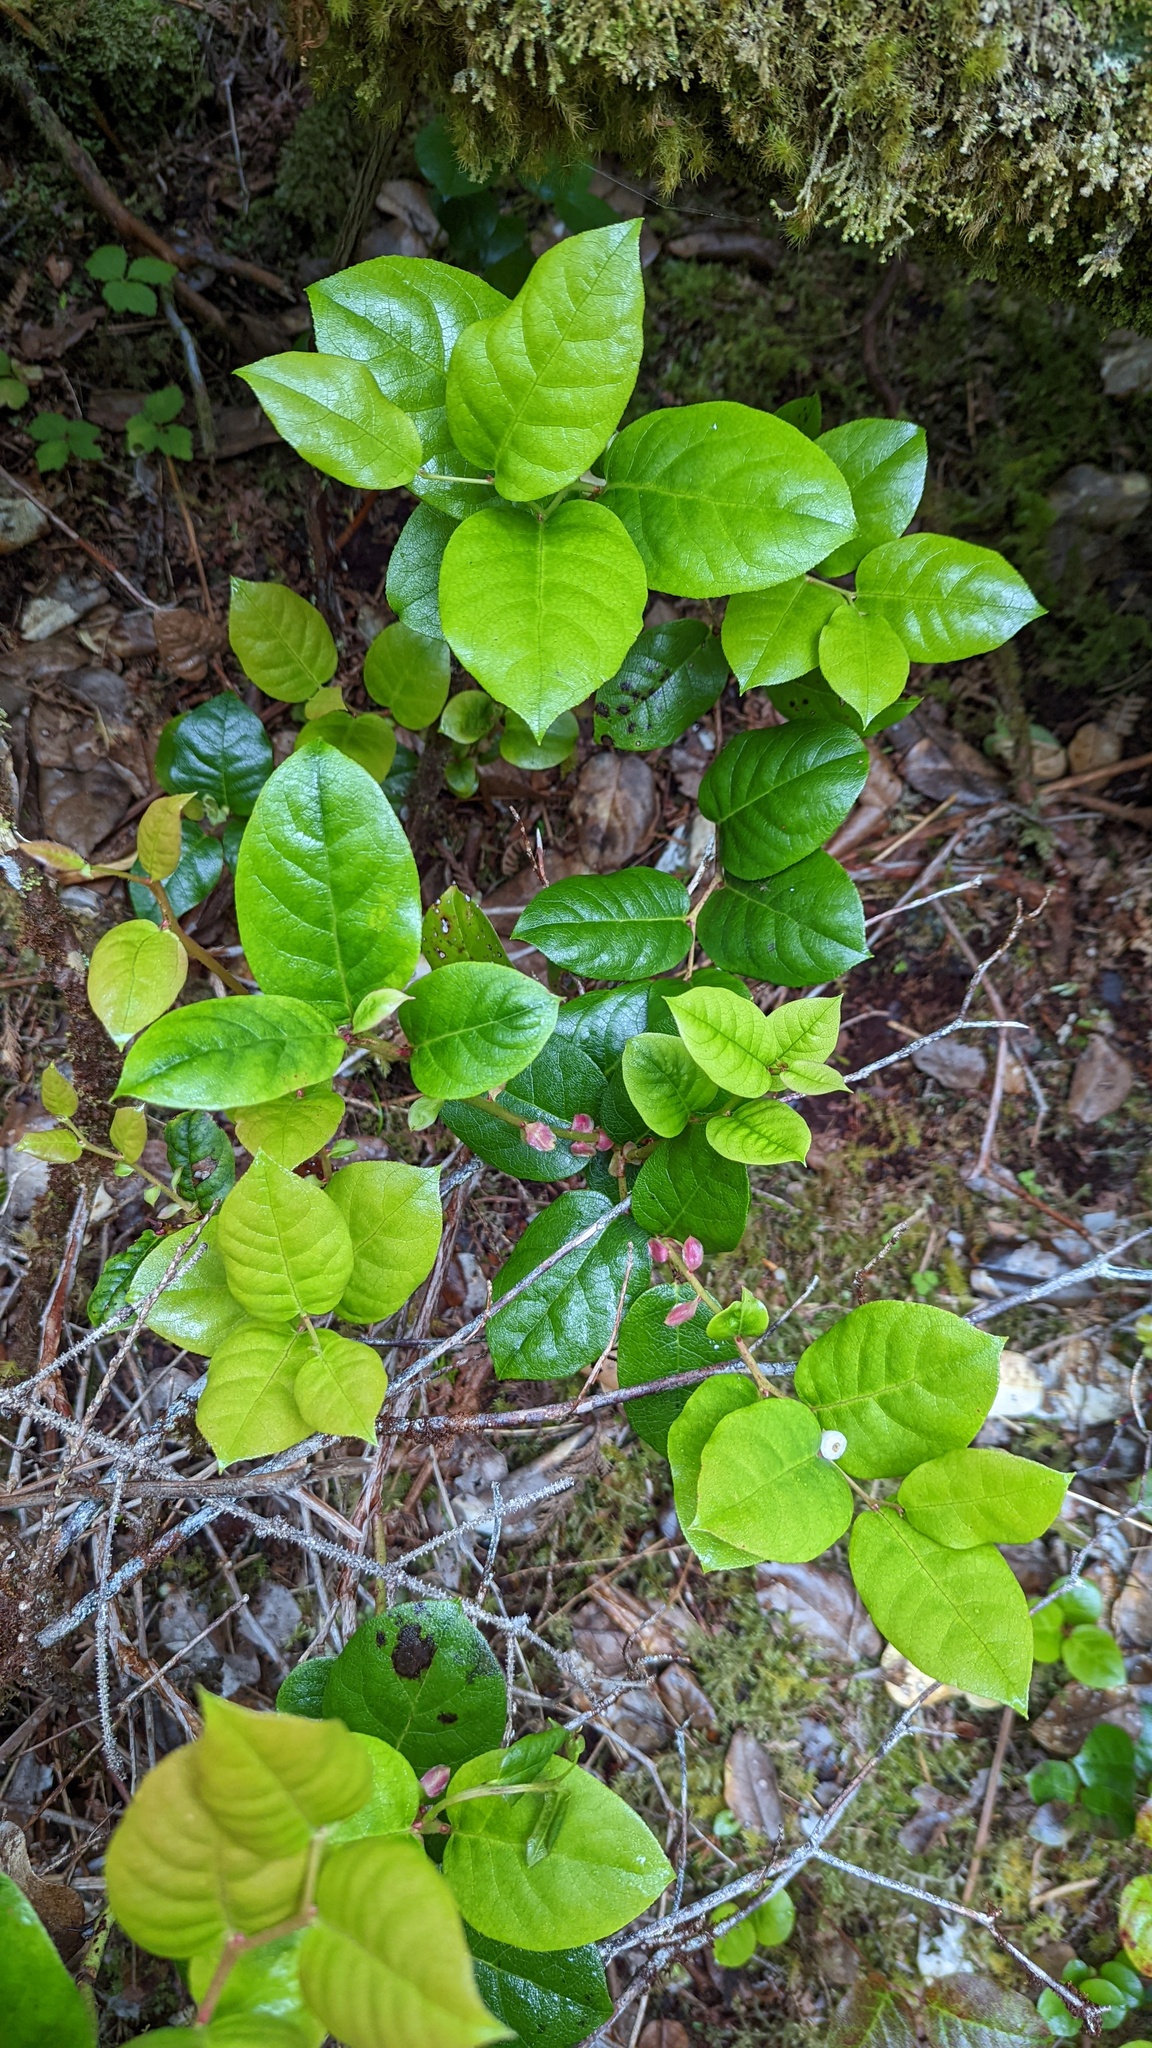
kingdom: Plantae
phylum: Tracheophyta
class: Magnoliopsida
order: Ericales
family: Ericaceae
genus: Gaultheria
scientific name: Gaultheria shallon
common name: Shallon
